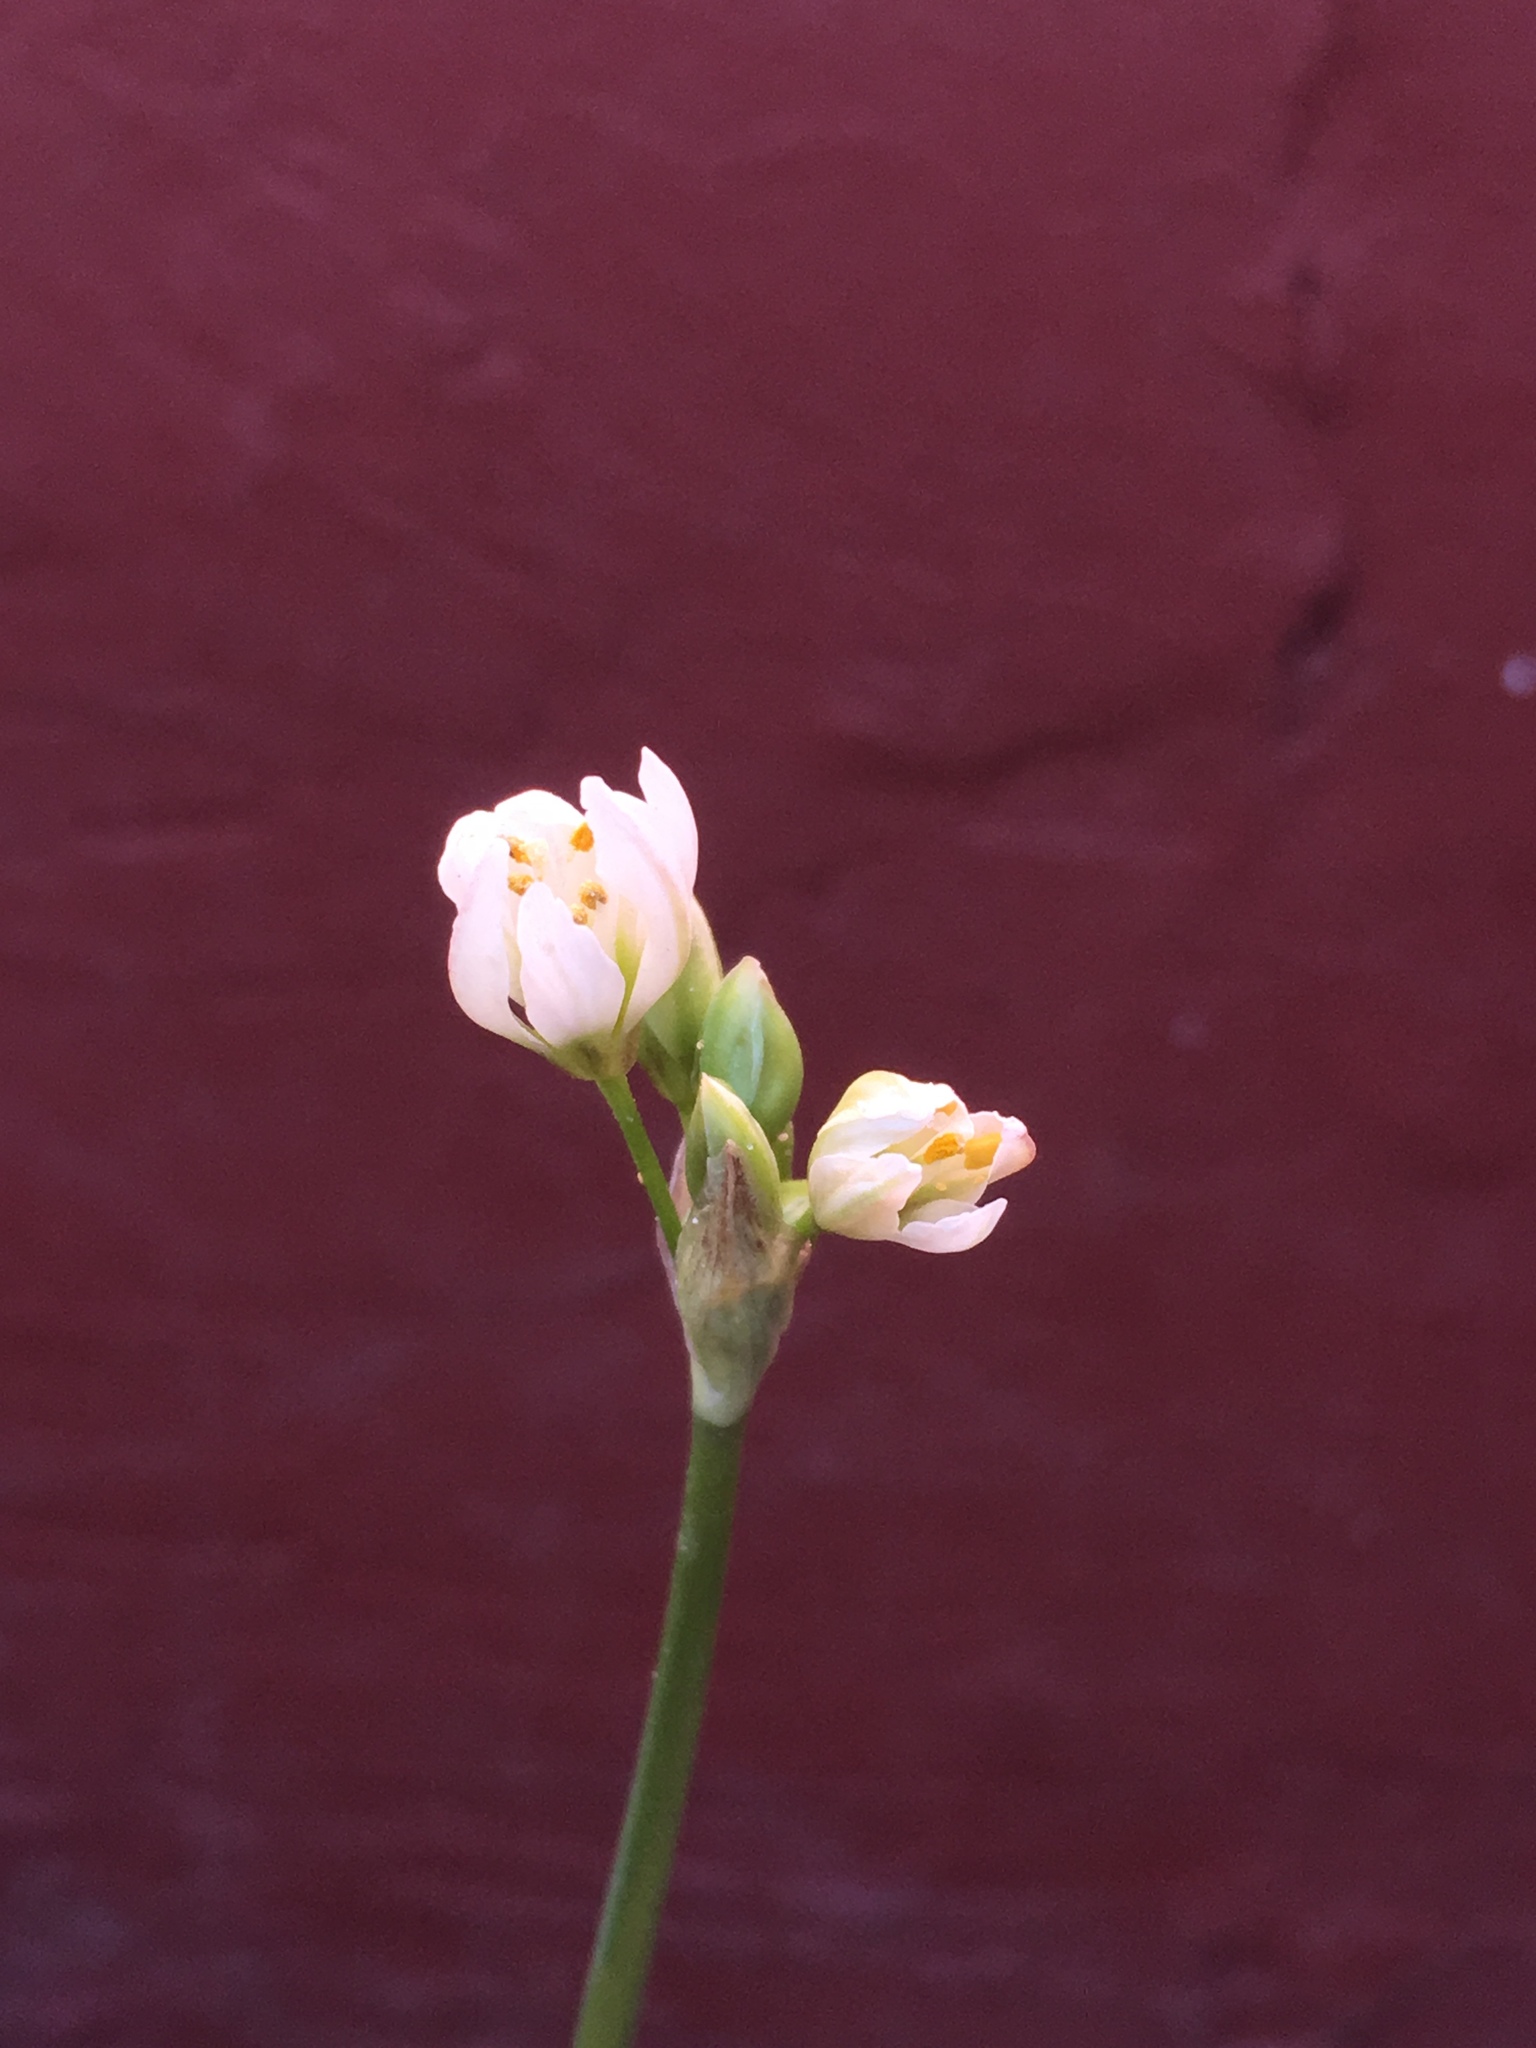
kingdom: Plantae
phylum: Tracheophyta
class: Liliopsida
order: Asparagales
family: Amaryllidaceae
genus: Nothoscordum
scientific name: Nothoscordum borbonicum
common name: Honeybells
